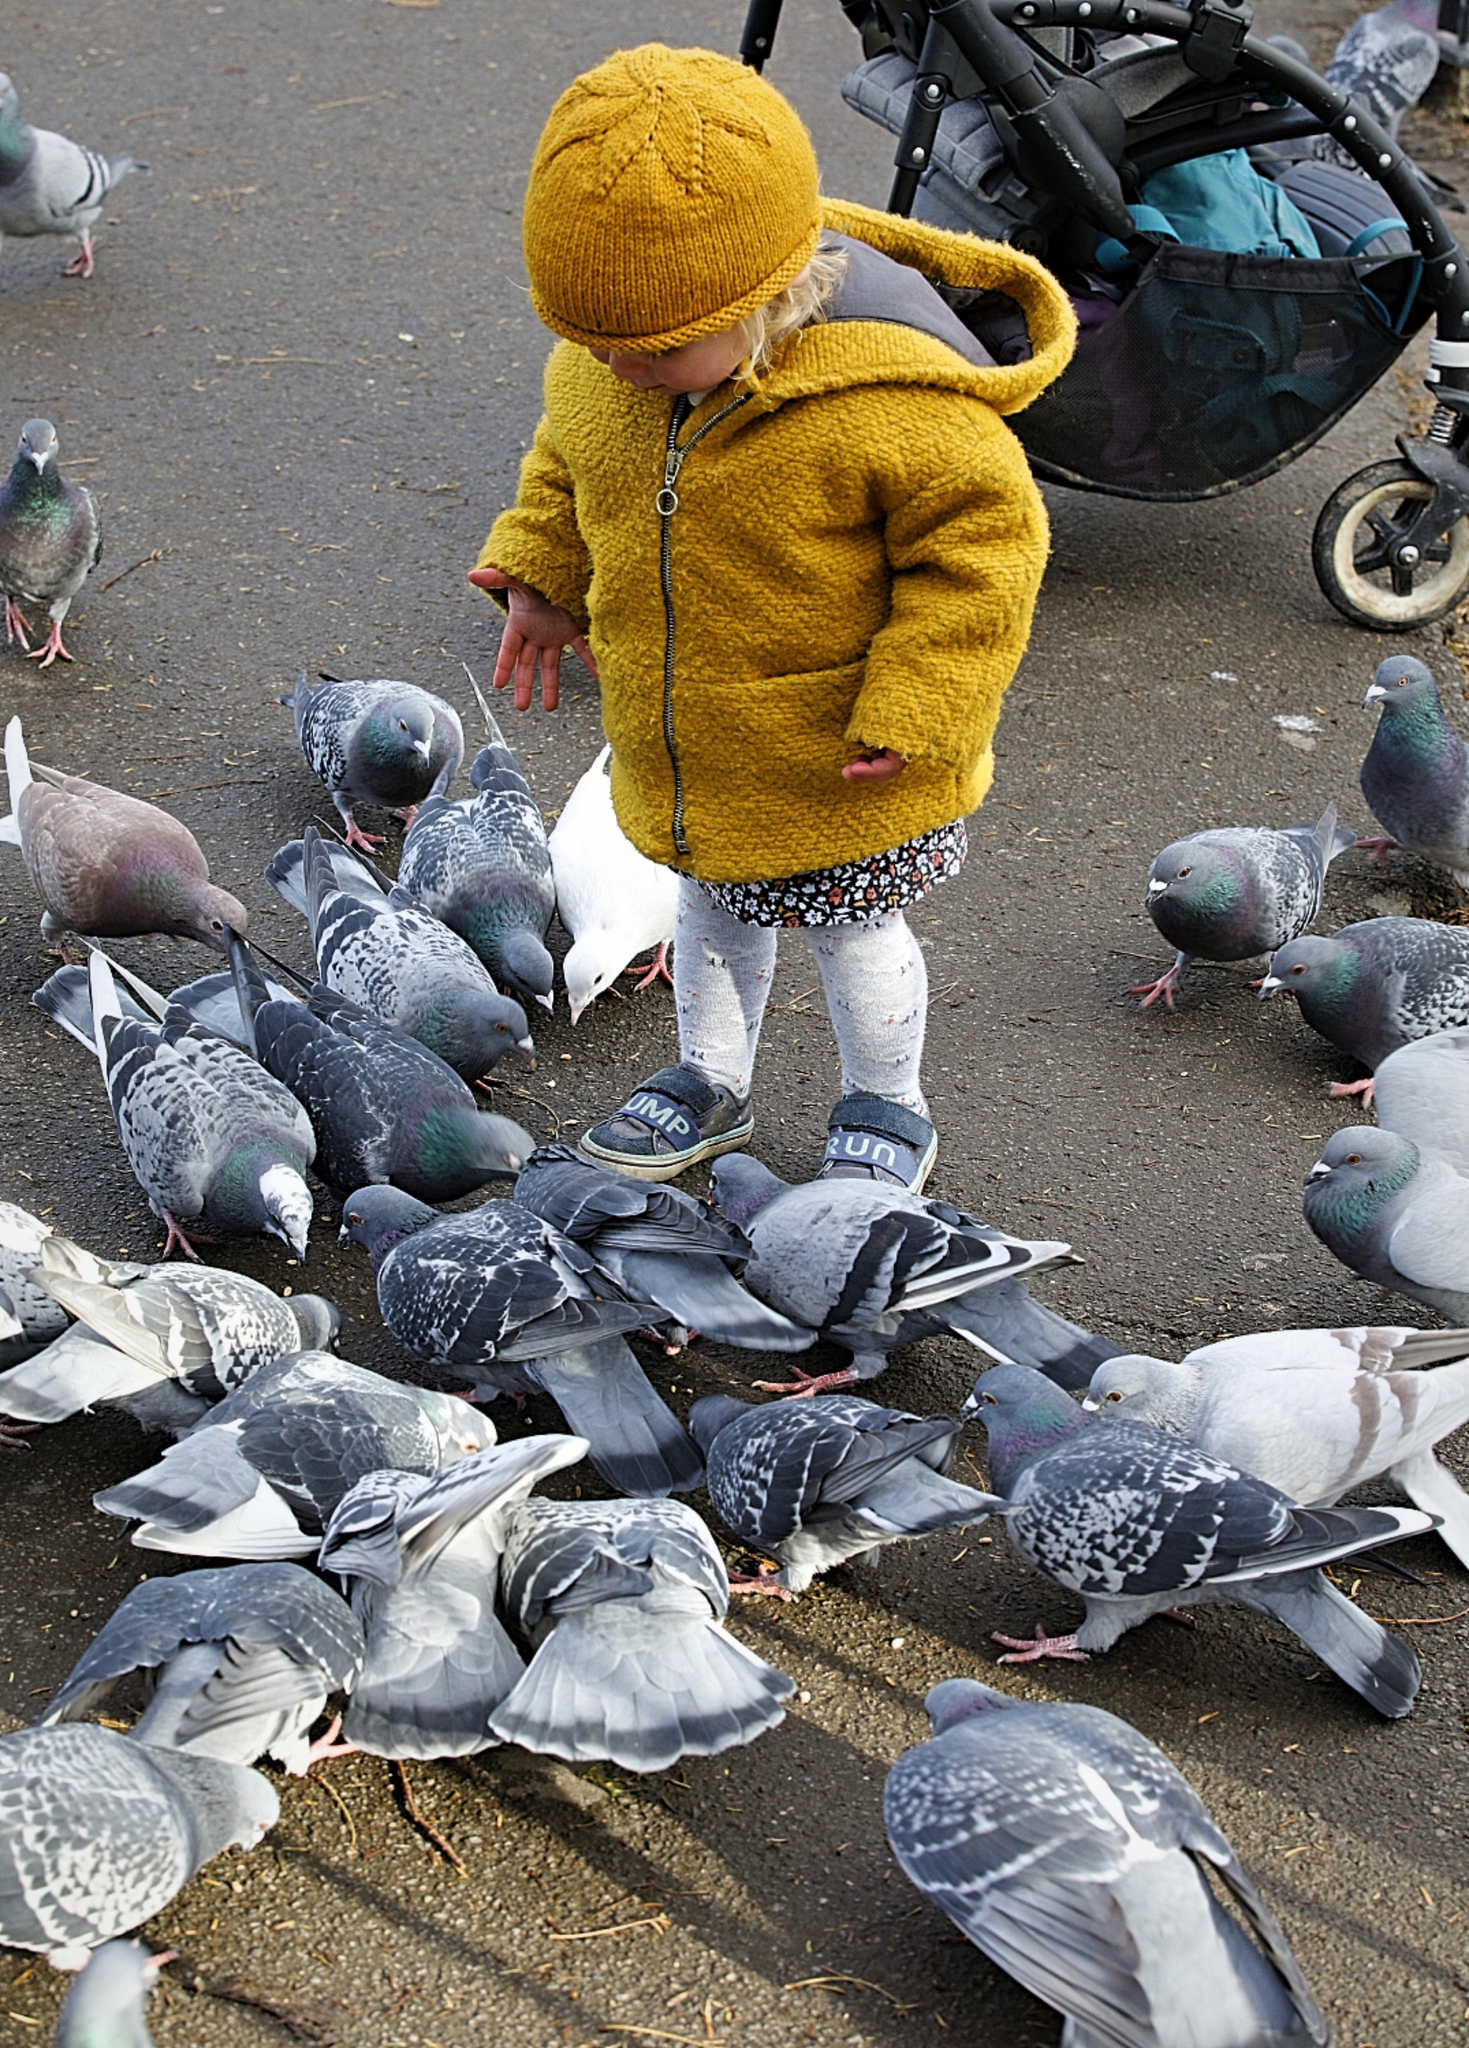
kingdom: Animalia
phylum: Chordata
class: Aves
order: Columbiformes
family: Columbidae
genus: Columba
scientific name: Columba livia
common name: Rock pigeon
